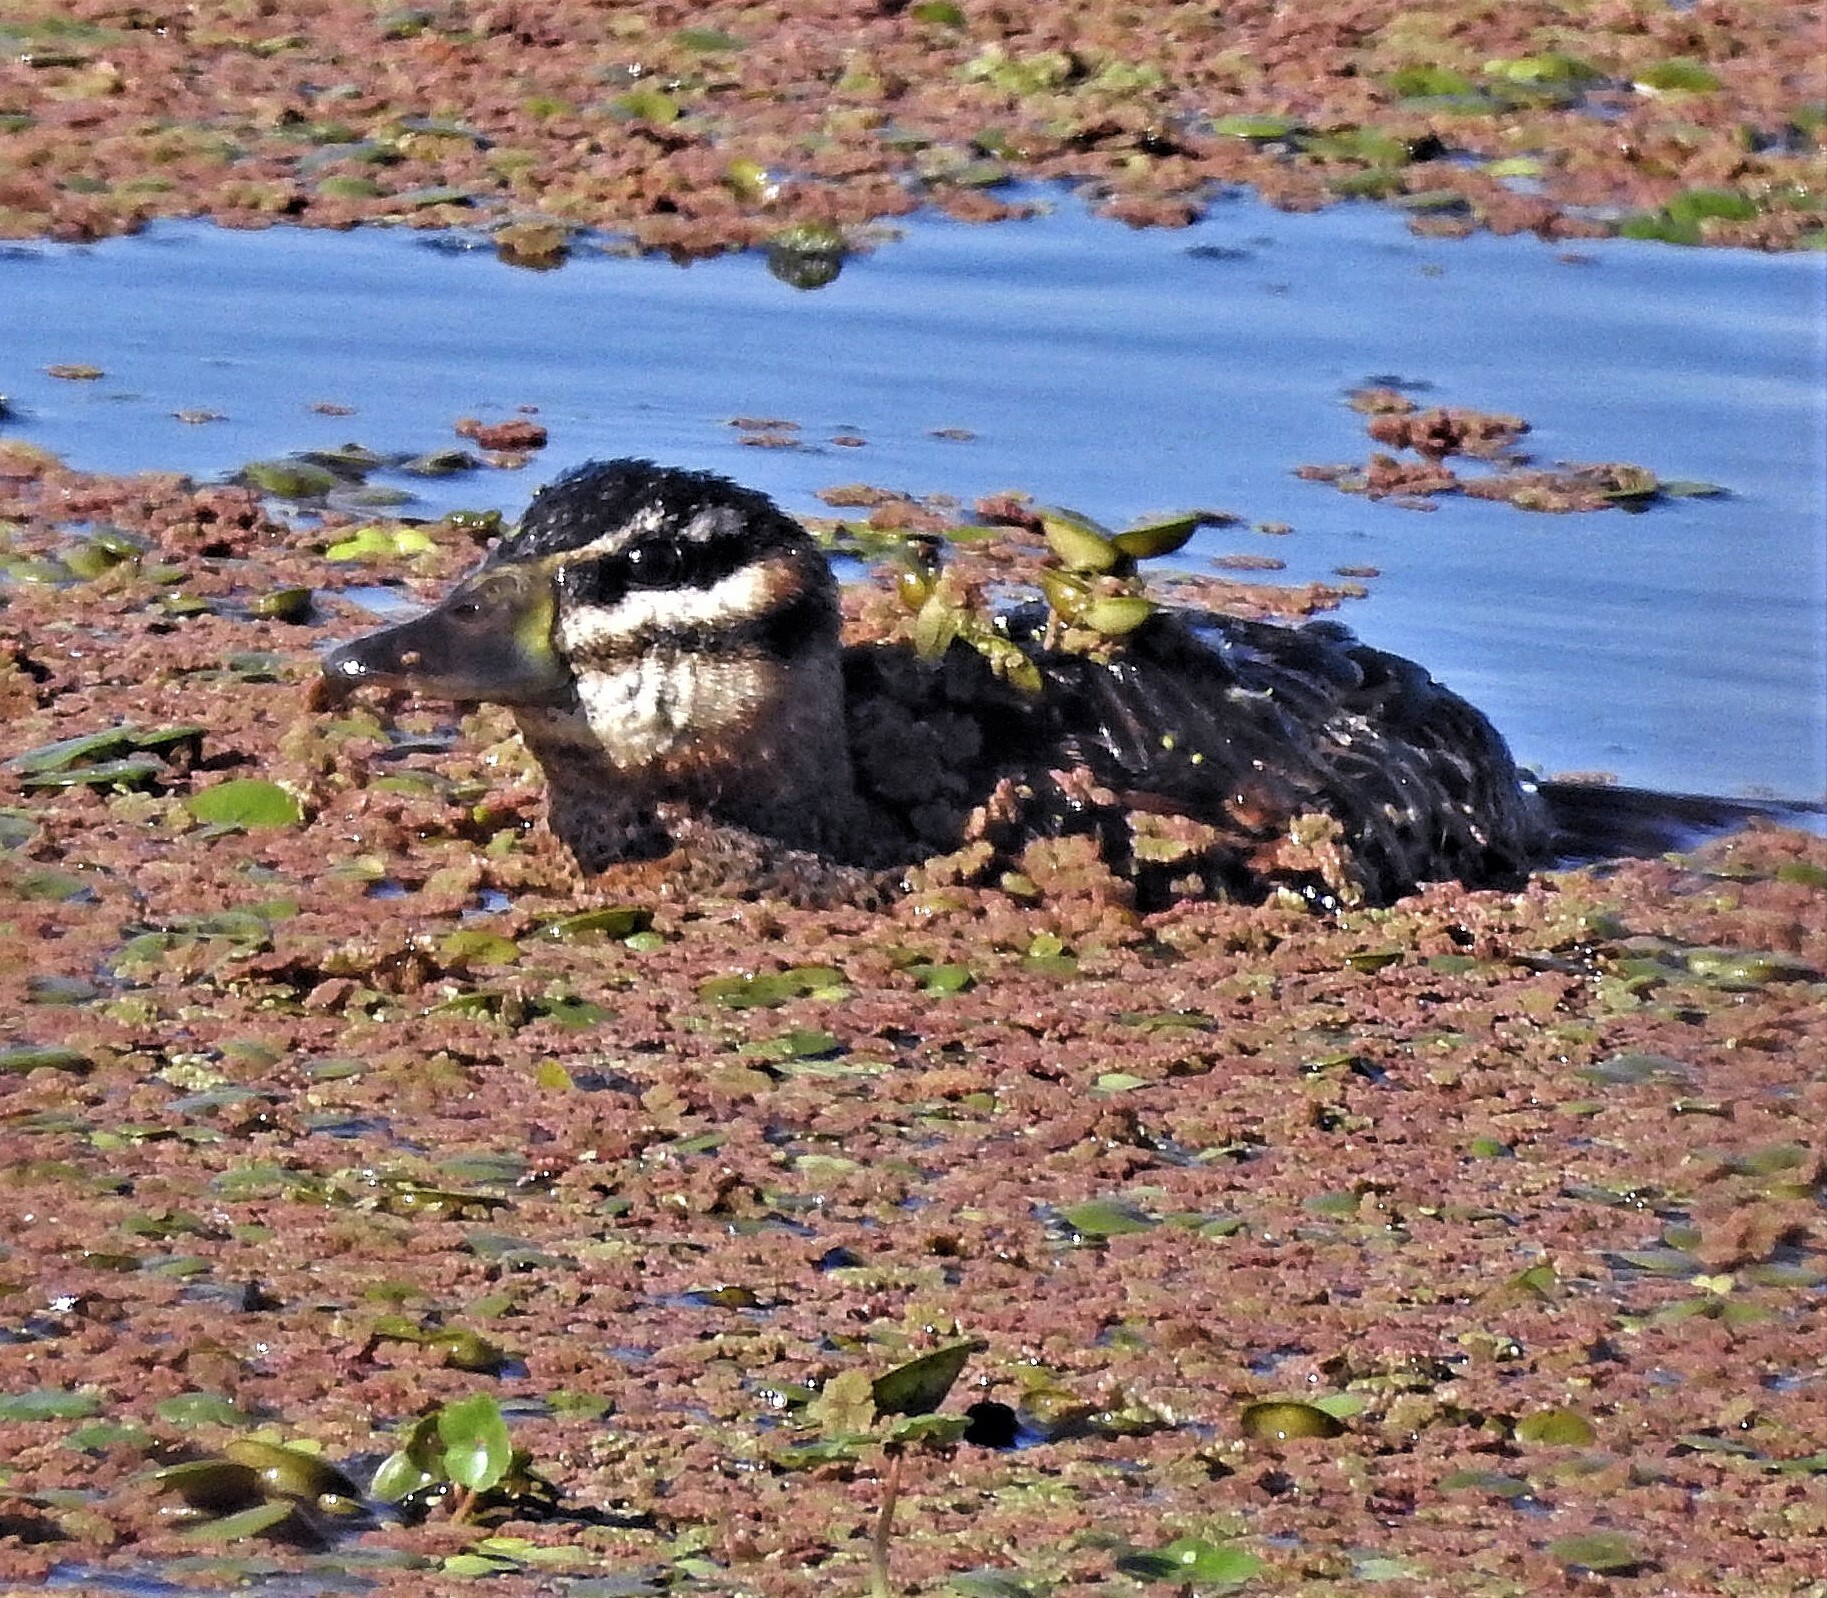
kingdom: Animalia
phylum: Chordata
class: Aves
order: Anseriformes
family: Anatidae
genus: Nomonyx
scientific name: Nomonyx dominicus
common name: Masked duck
